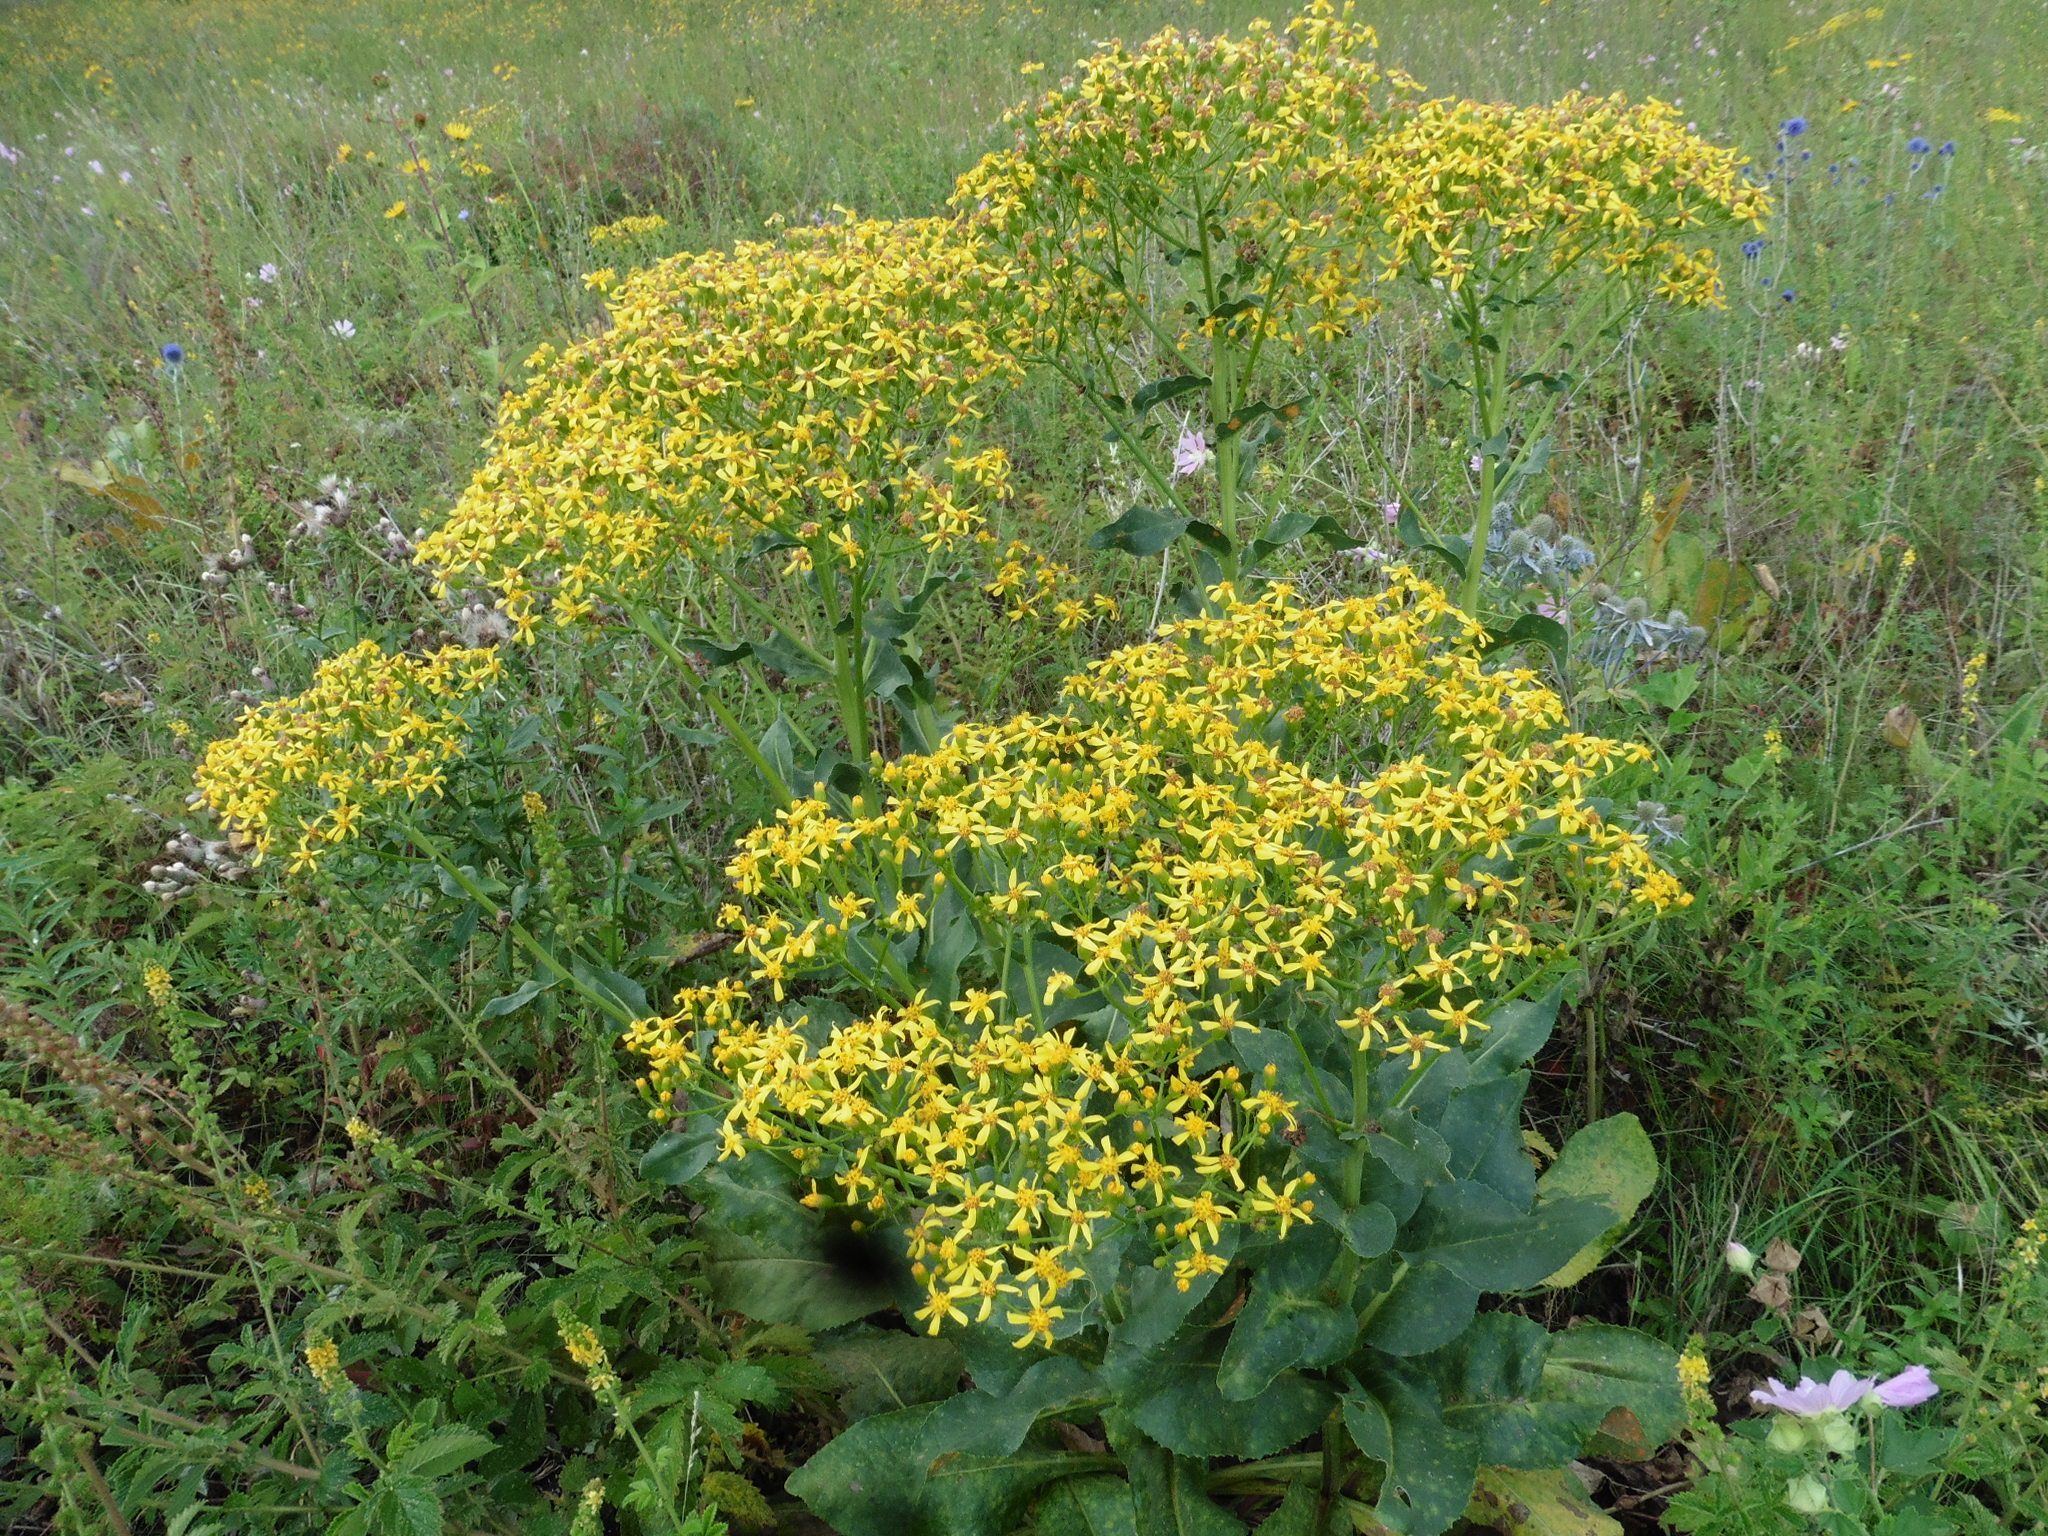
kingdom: Plantae
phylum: Tracheophyta
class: Magnoliopsida
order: Asterales
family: Asteraceae
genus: Senecio
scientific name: Senecio doria
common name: Golden ragwort
